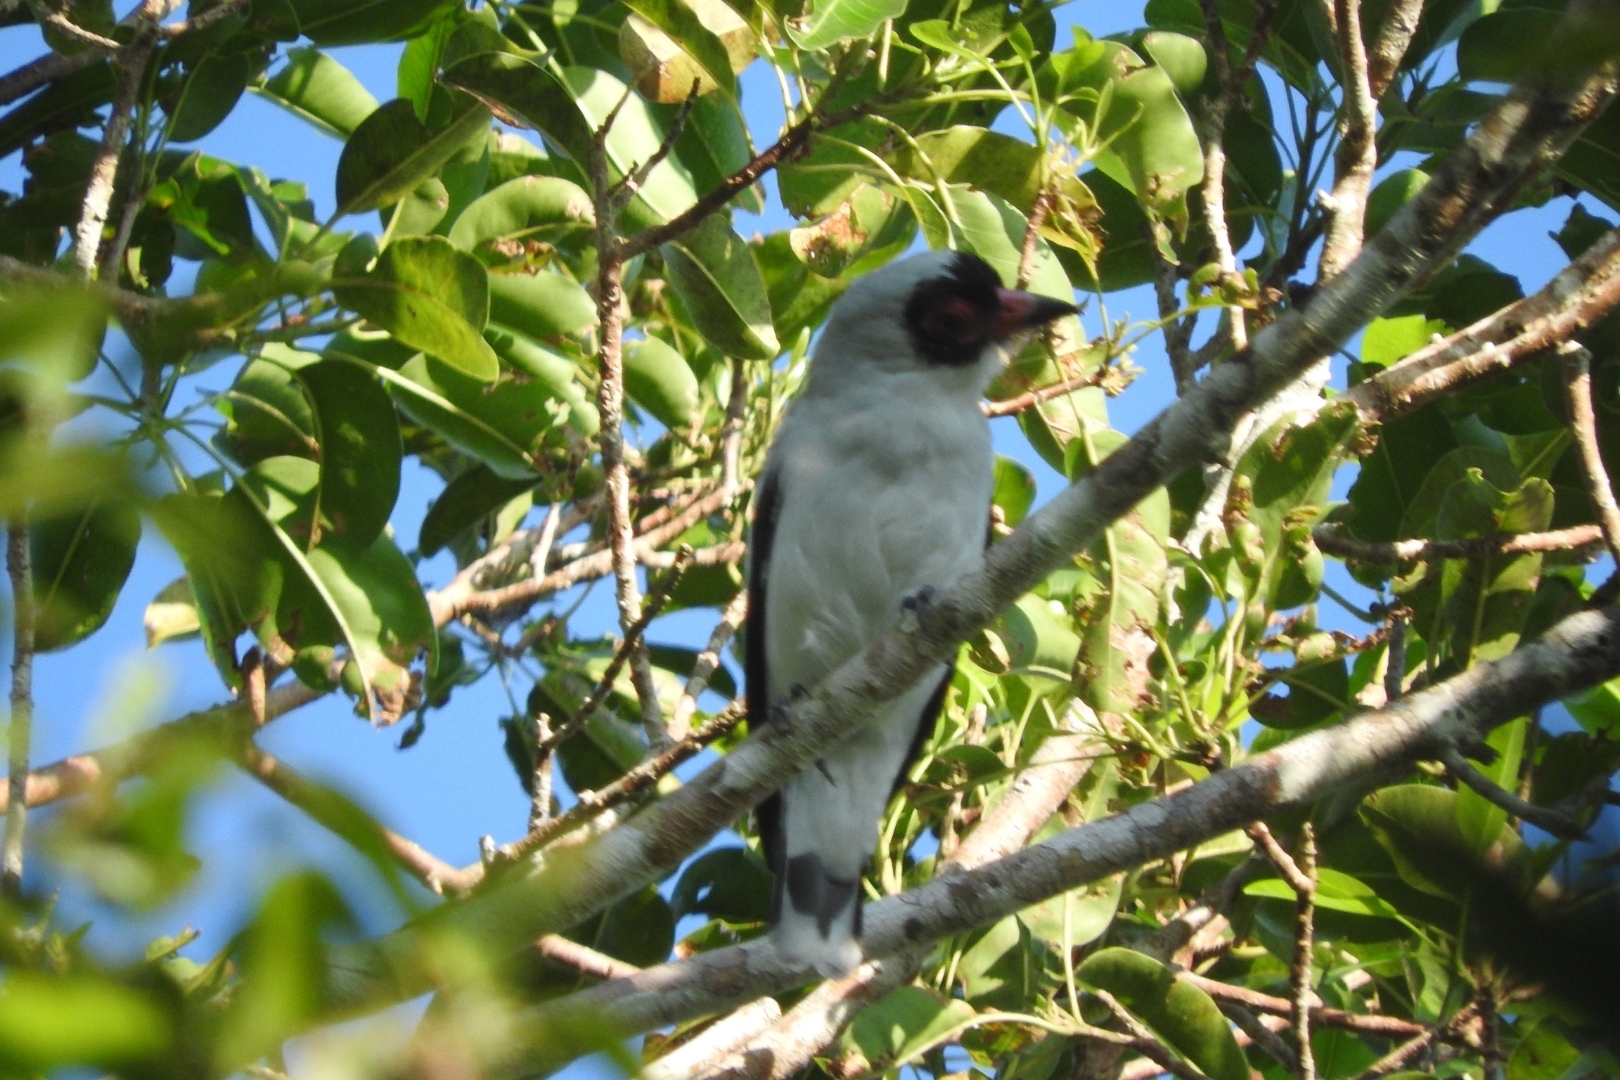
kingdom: Animalia
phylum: Chordata
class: Aves
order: Passeriformes
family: Cotingidae
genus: Tityra
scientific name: Tityra semifasciata
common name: Masked tityra
